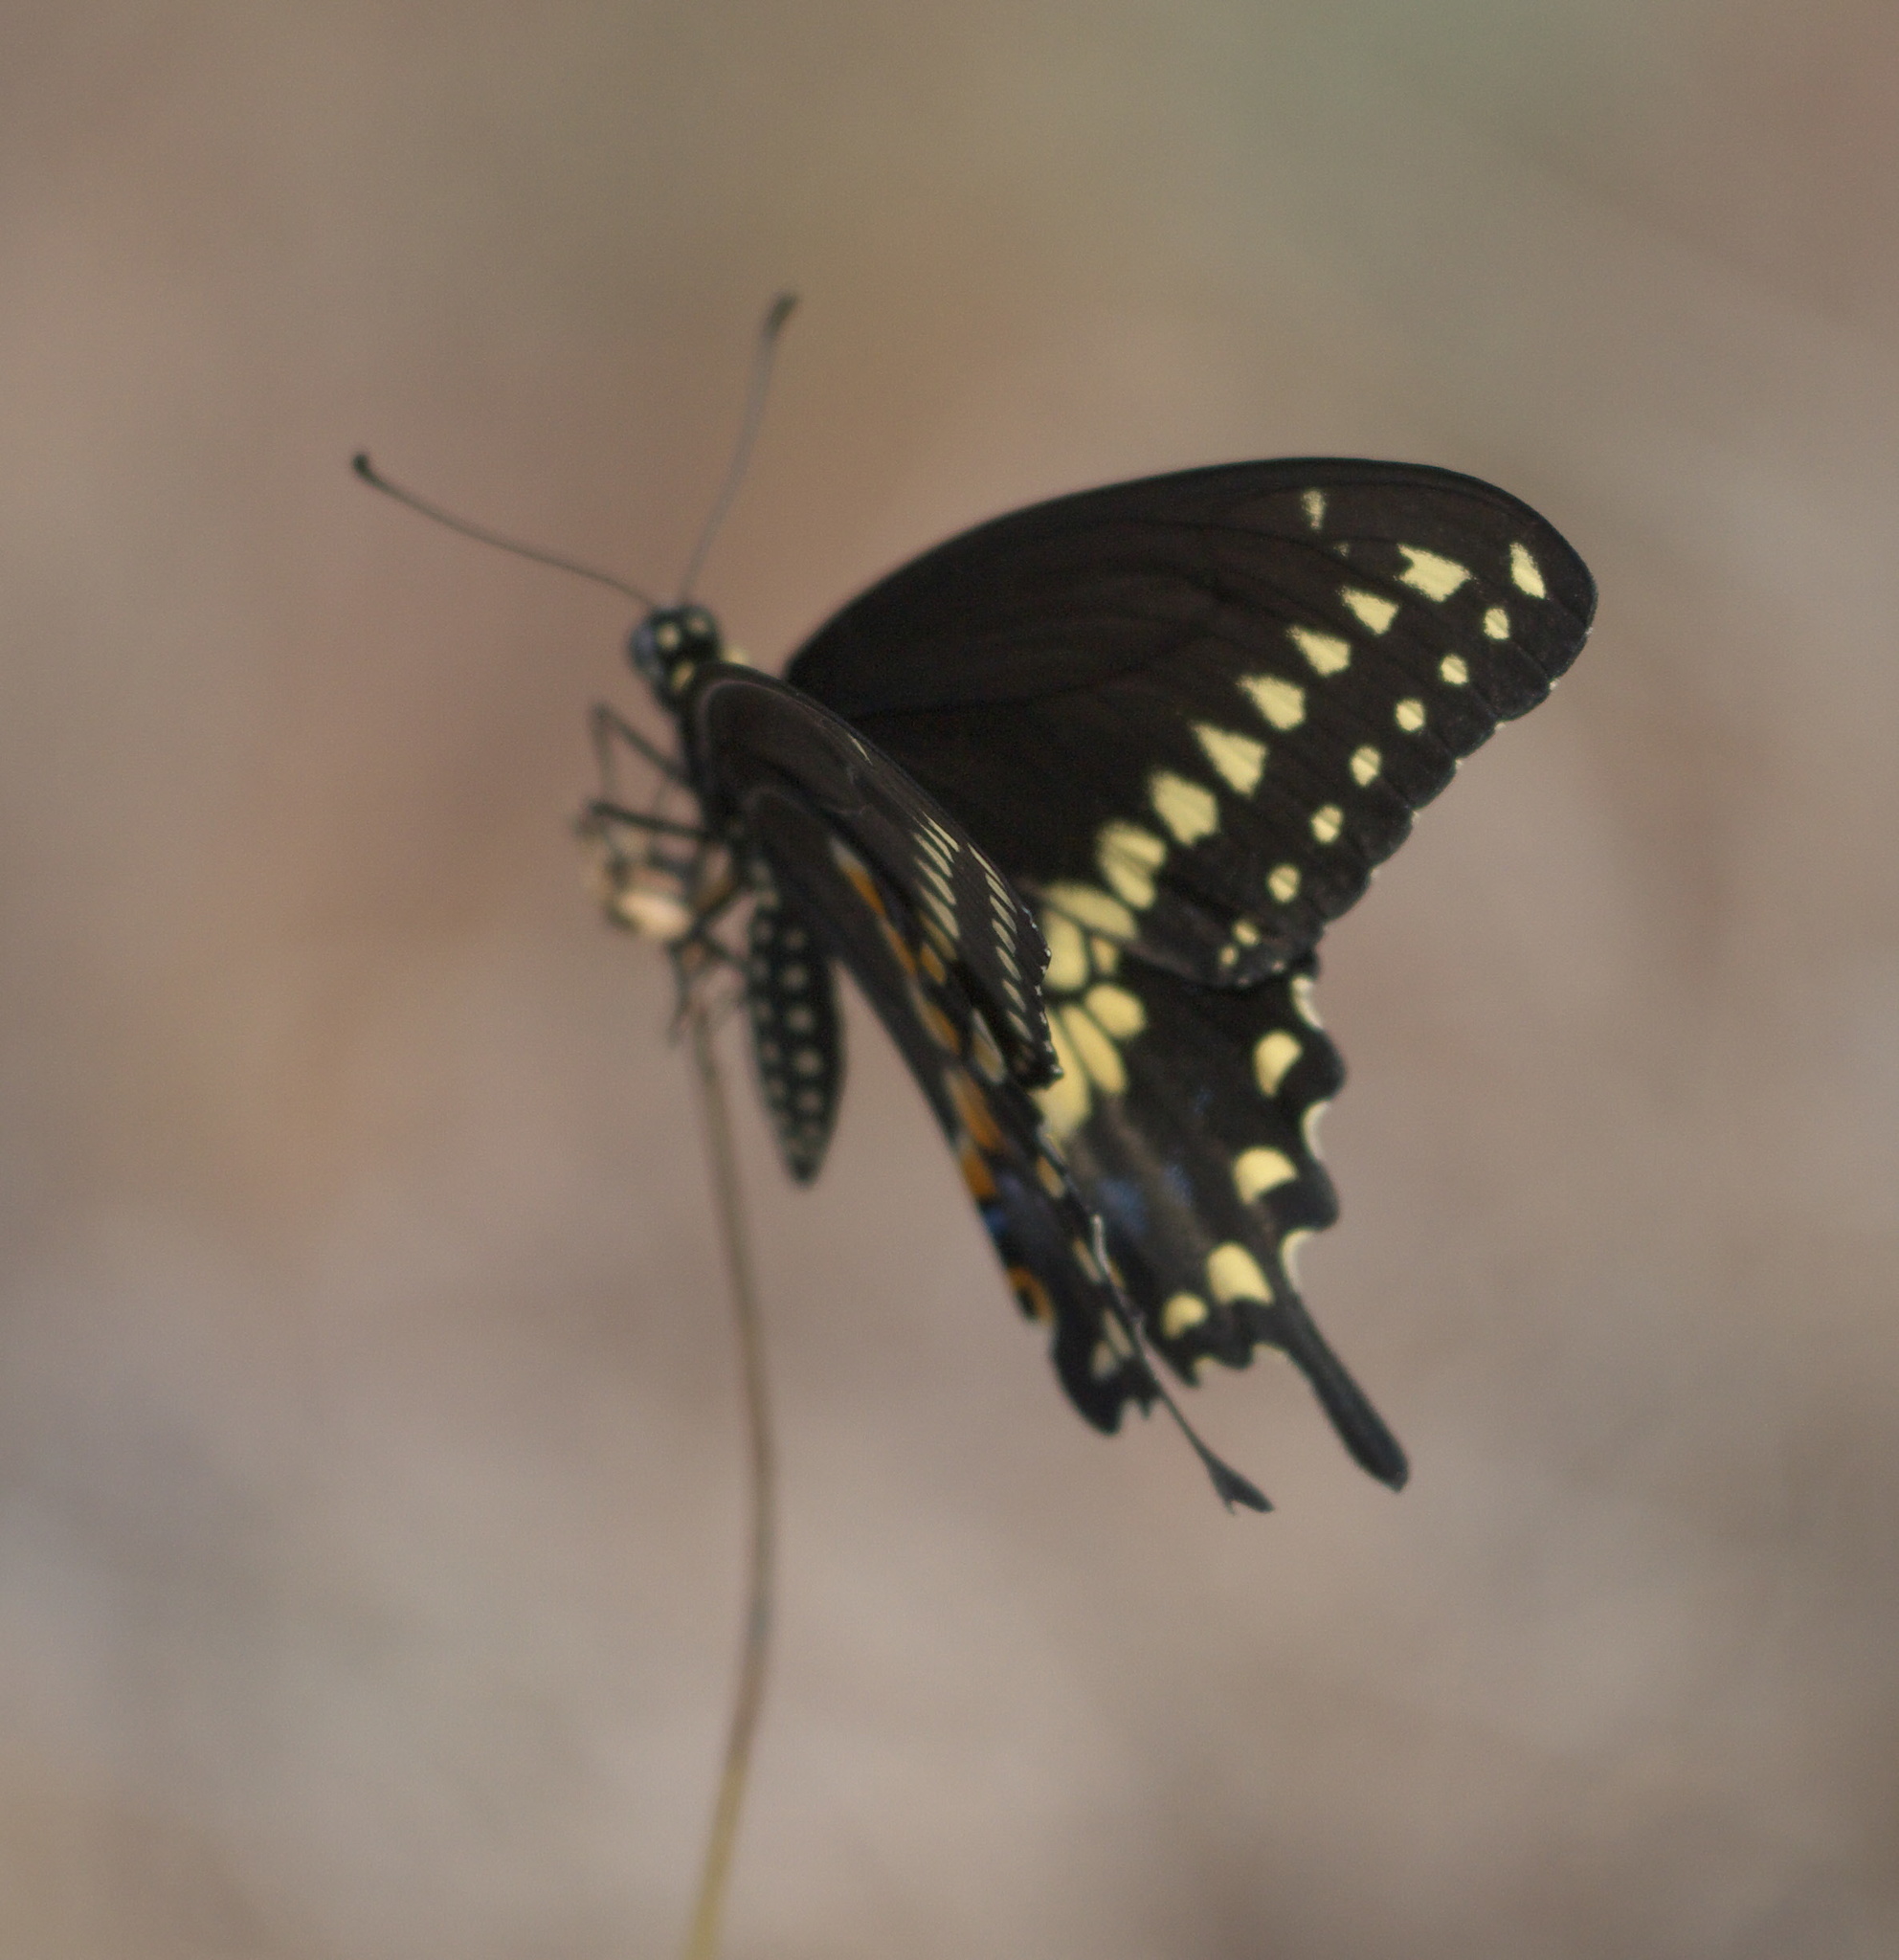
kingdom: Animalia
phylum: Arthropoda
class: Insecta
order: Lepidoptera
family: Papilionidae
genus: Papilio
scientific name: Papilio polyxenes
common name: Black swallowtail
